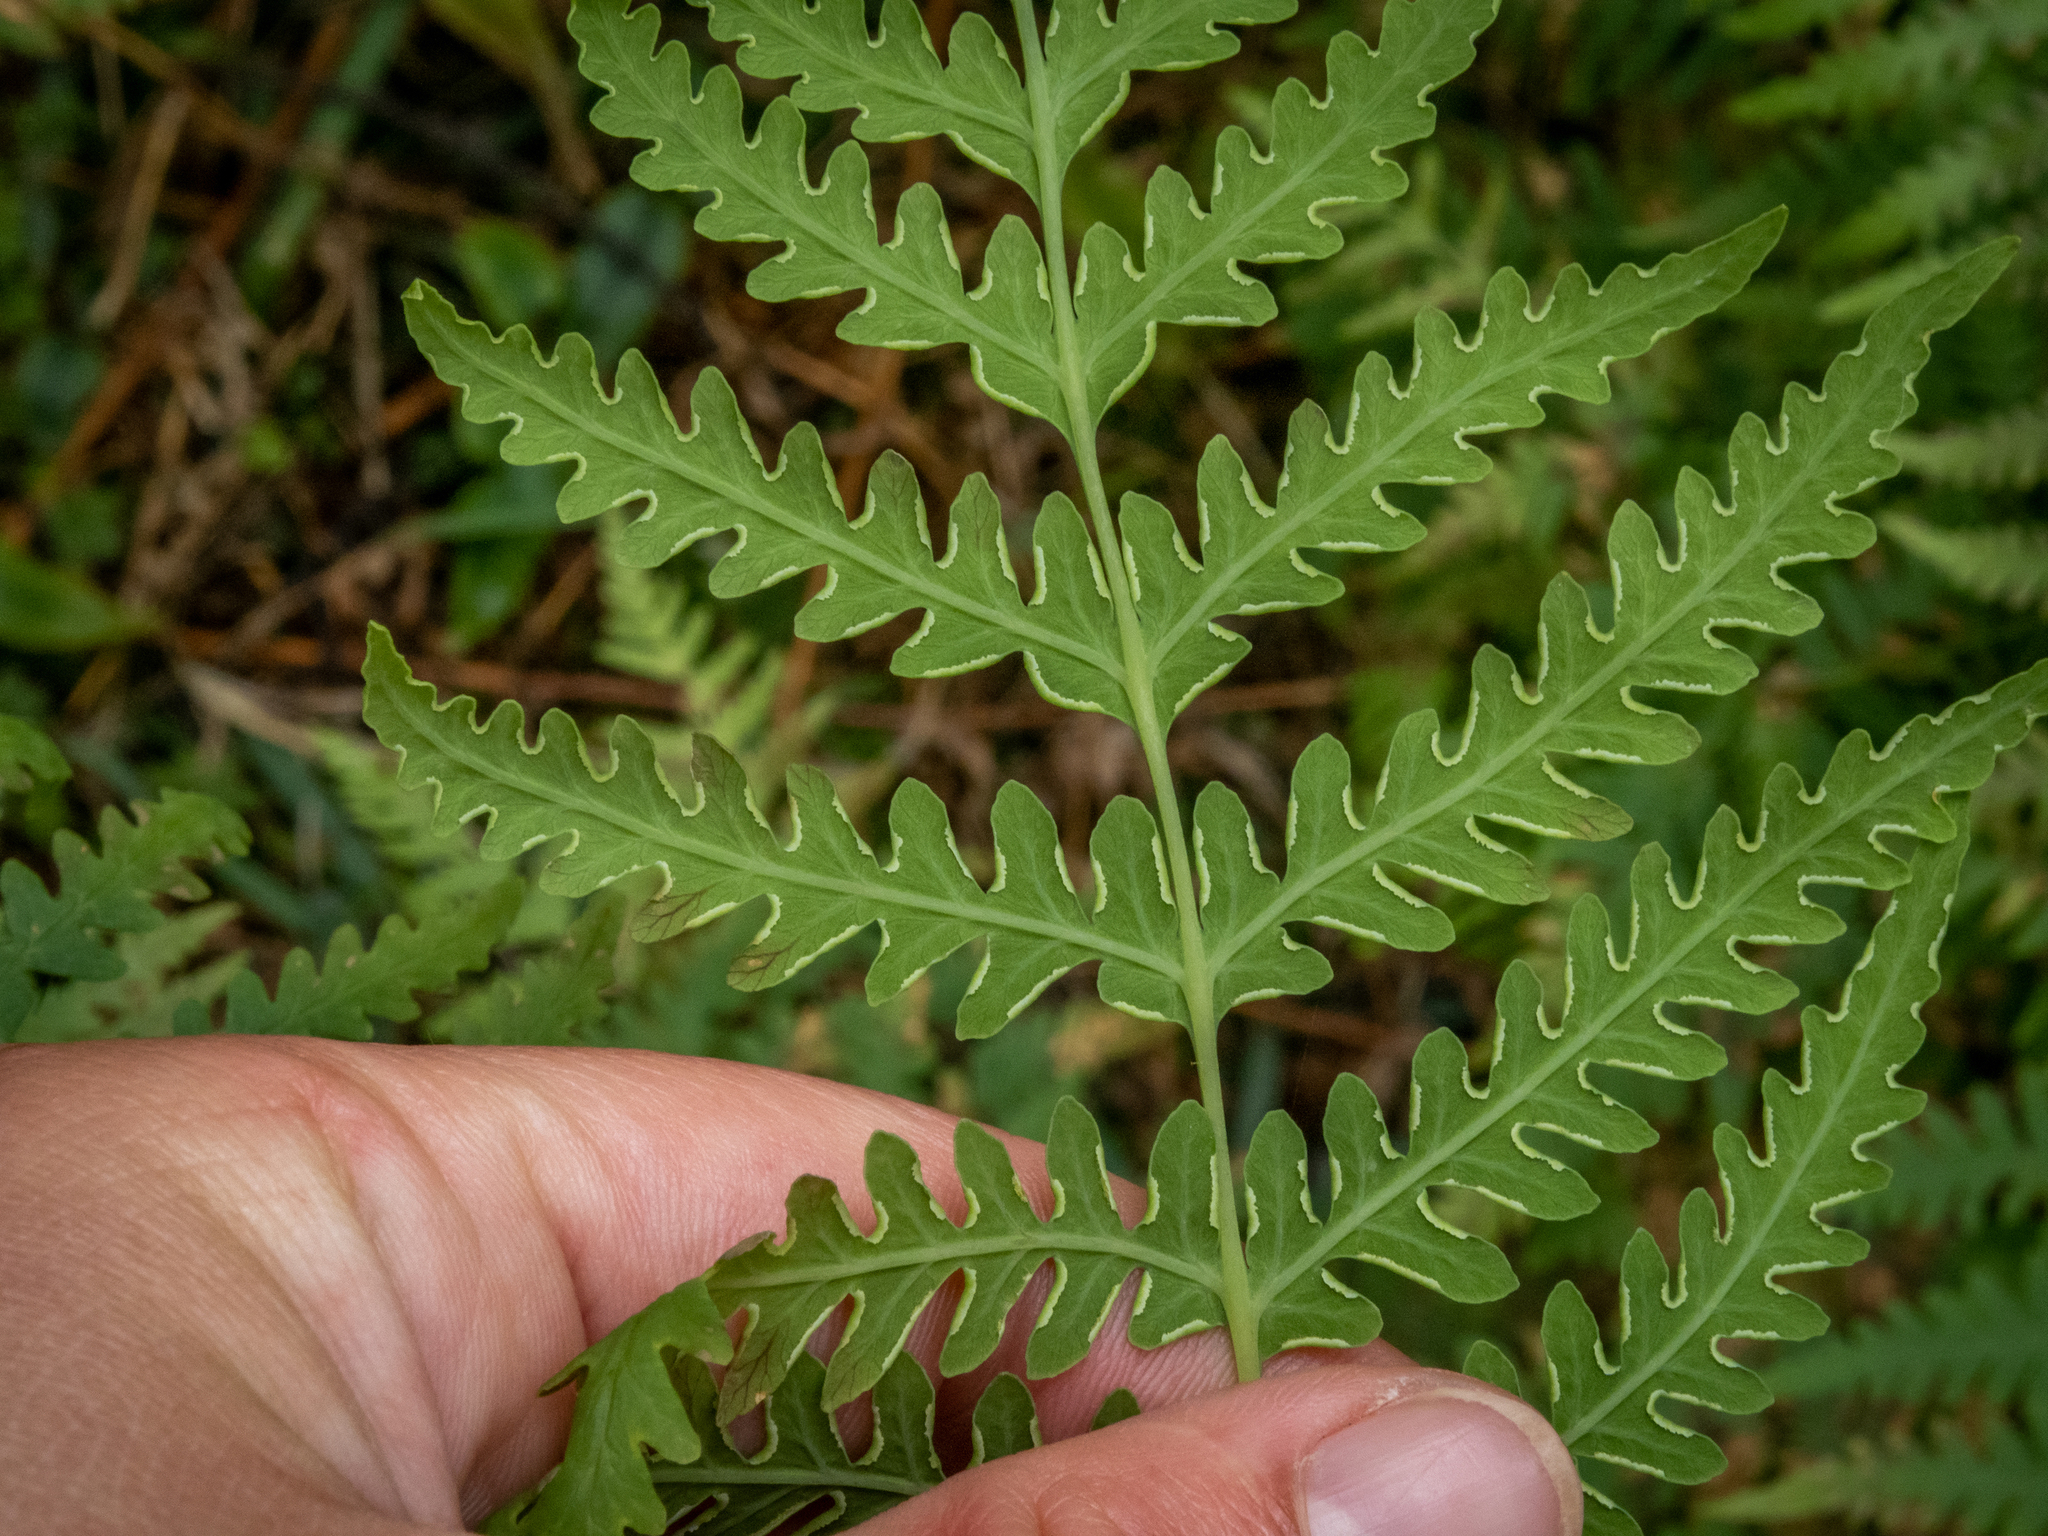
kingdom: Plantae
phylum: Tracheophyta
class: Polypodiopsida
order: Polypodiales
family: Dennstaedtiaceae
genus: Histiopteris
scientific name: Histiopteris incisa
